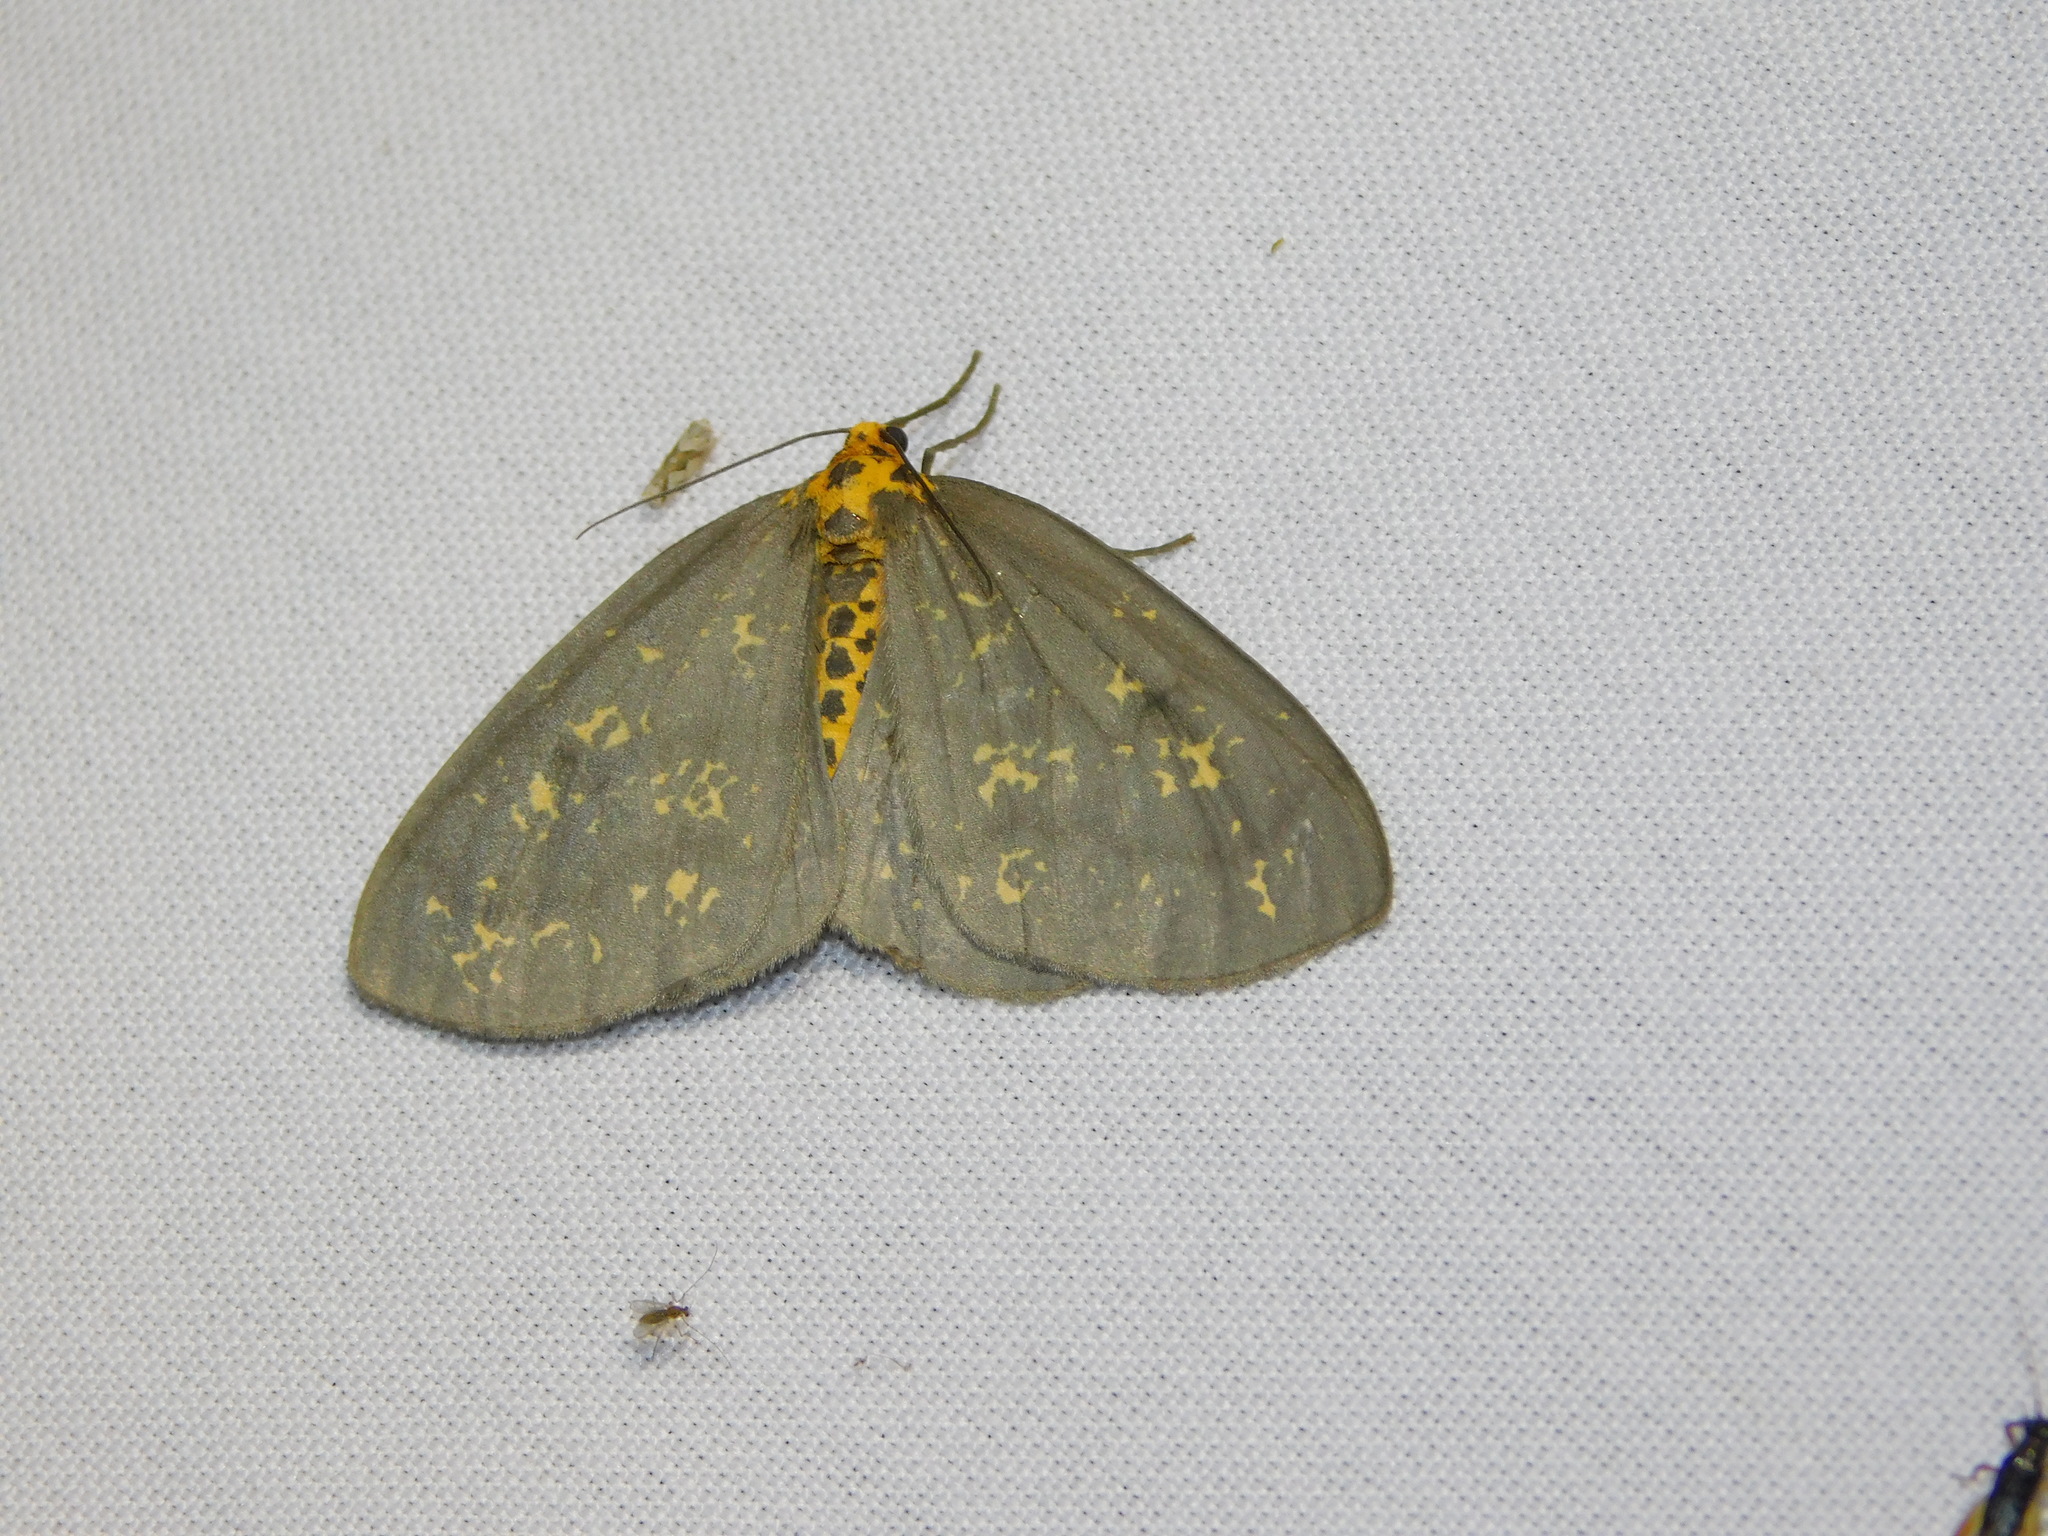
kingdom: Animalia
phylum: Arthropoda
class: Insecta
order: Lepidoptera
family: Geometridae
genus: Abraxas
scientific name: Abraxas poliaria
